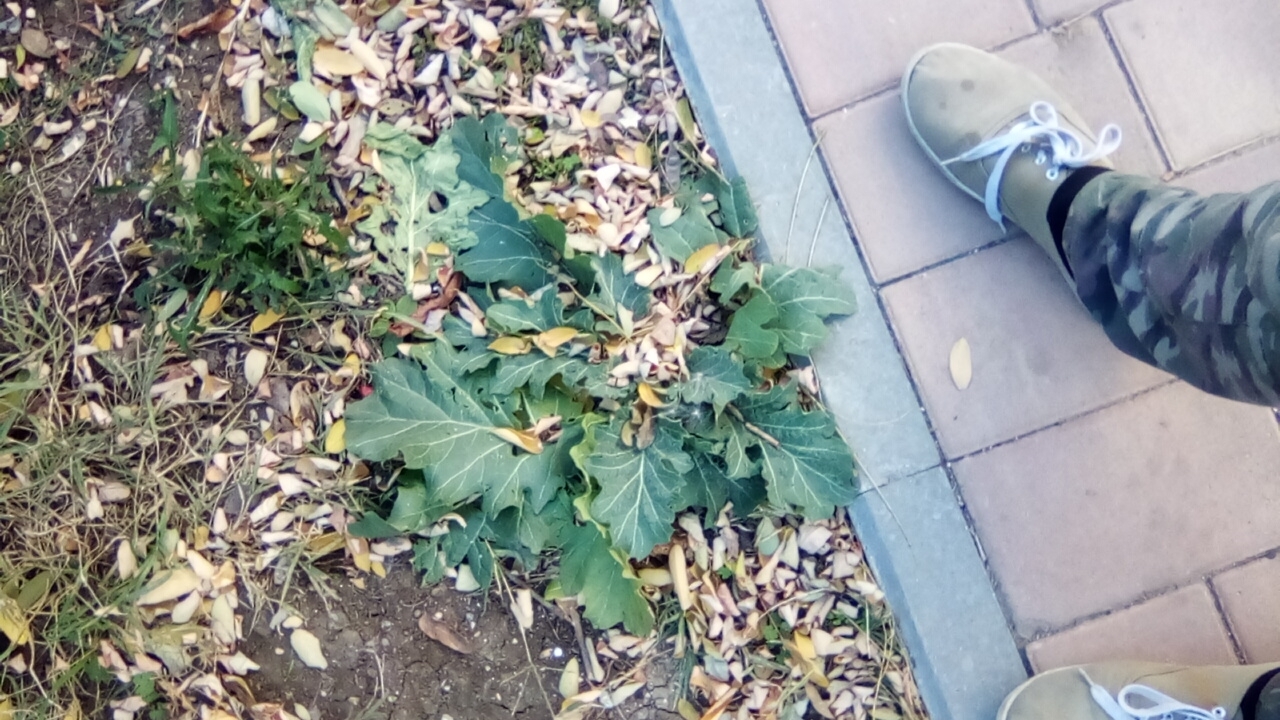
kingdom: Plantae
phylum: Tracheophyta
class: Magnoliopsida
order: Solanales
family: Solanaceae
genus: Hyoscyamus
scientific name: Hyoscyamus niger
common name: Henbane
